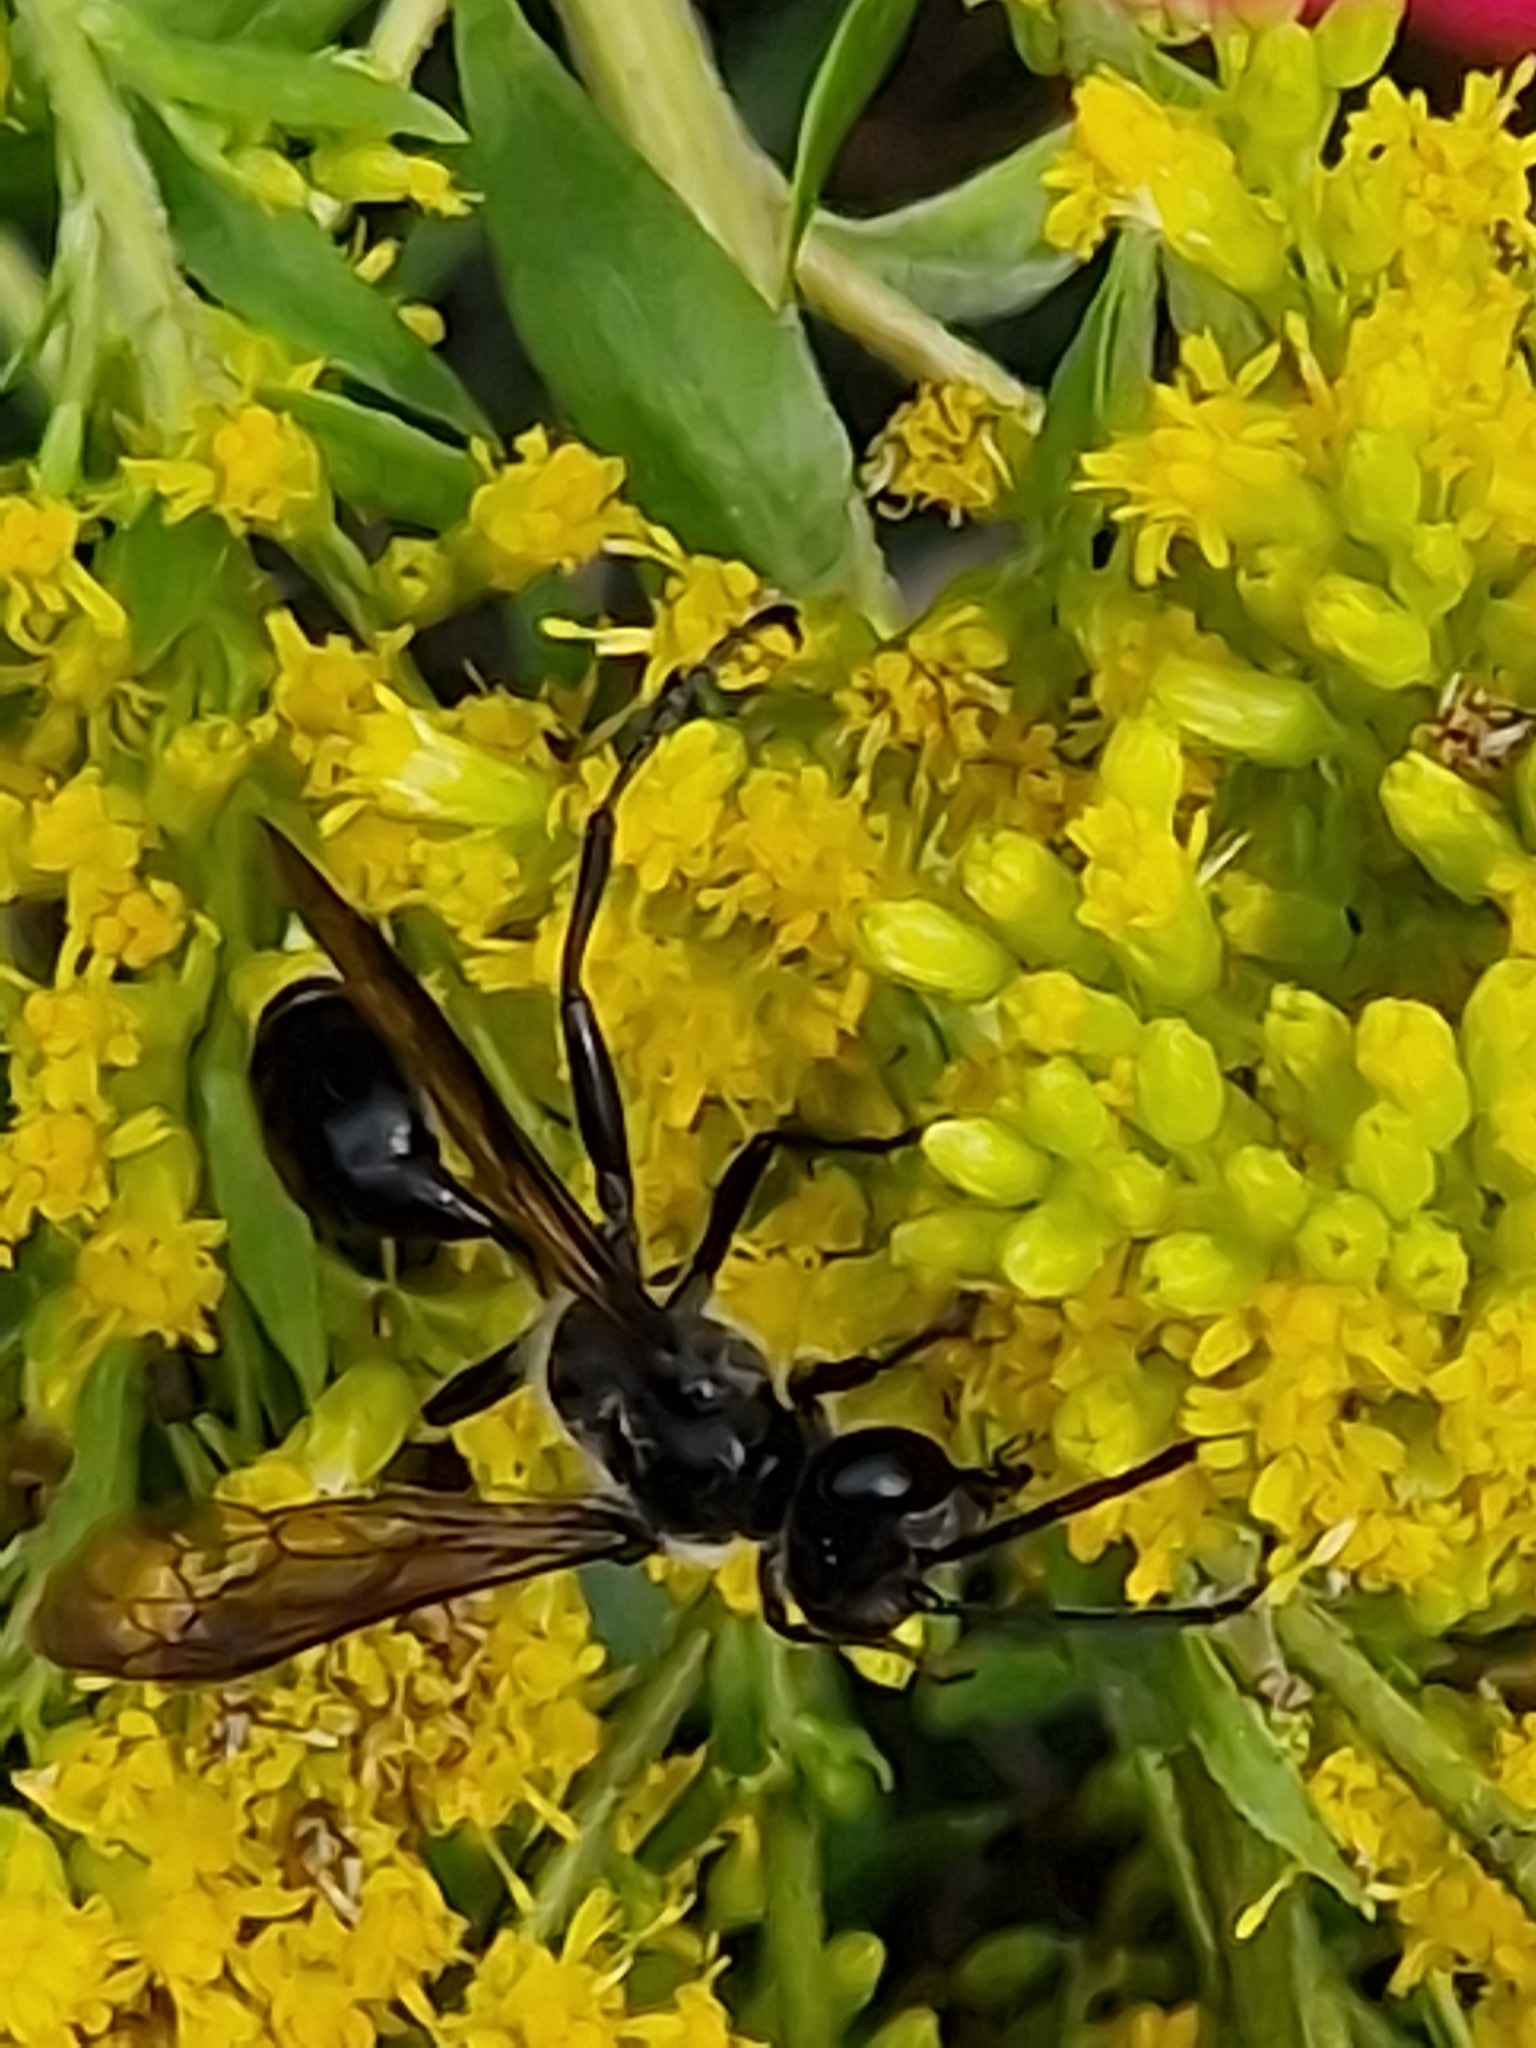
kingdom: Animalia
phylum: Arthropoda
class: Insecta
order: Hymenoptera
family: Sphecidae
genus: Isodontia
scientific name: Isodontia mexicana
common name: Mud dauber
